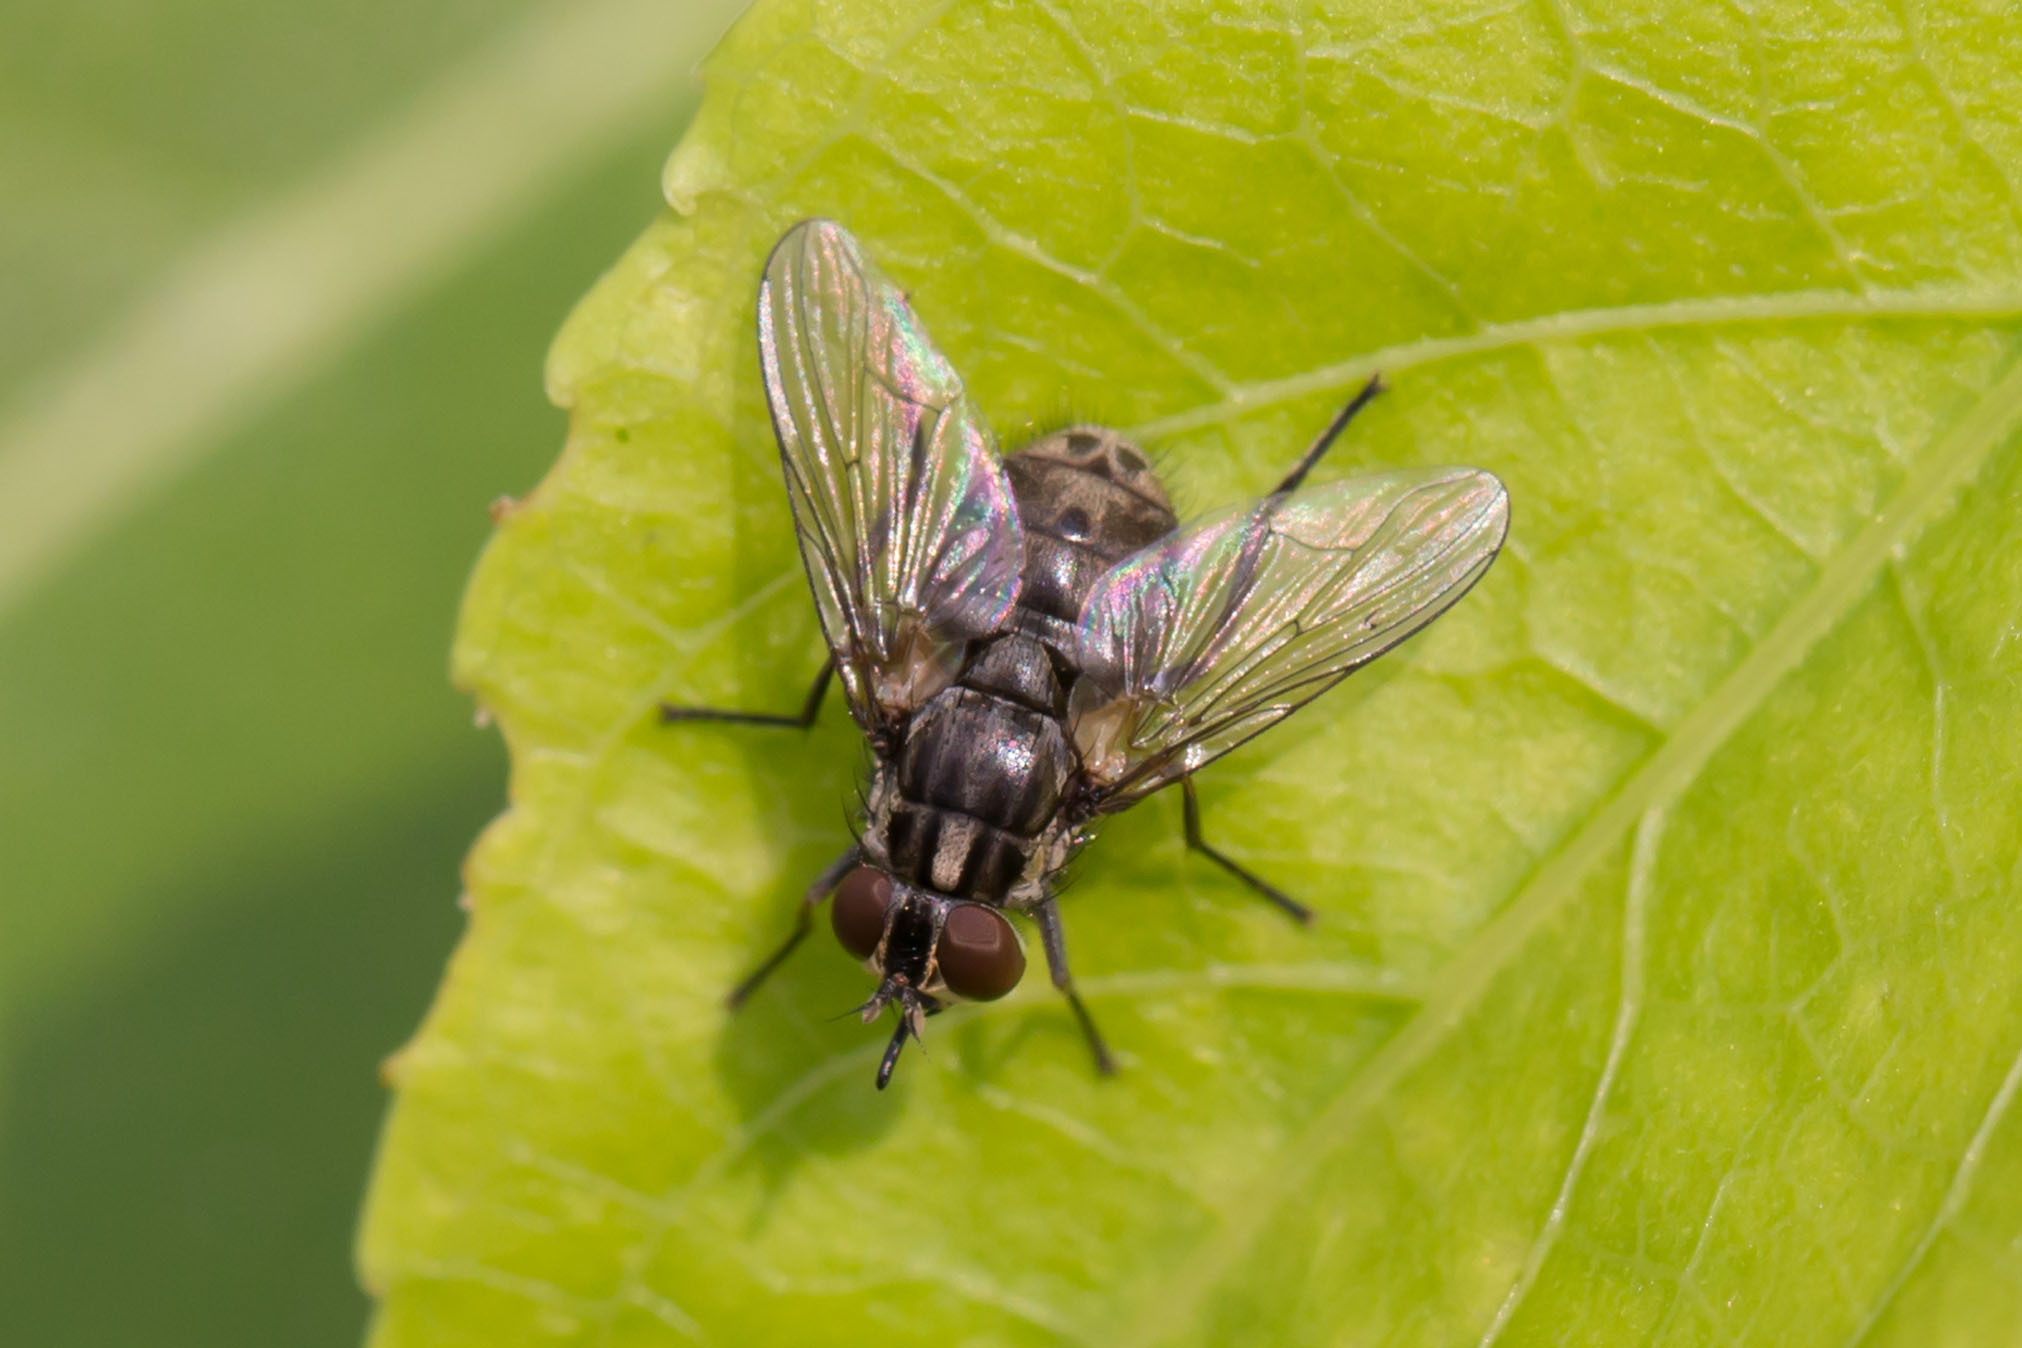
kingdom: Animalia
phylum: Arthropoda
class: Insecta
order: Diptera
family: Muscidae
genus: Stomoxys
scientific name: Stomoxys calcitrans
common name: Stable fly
